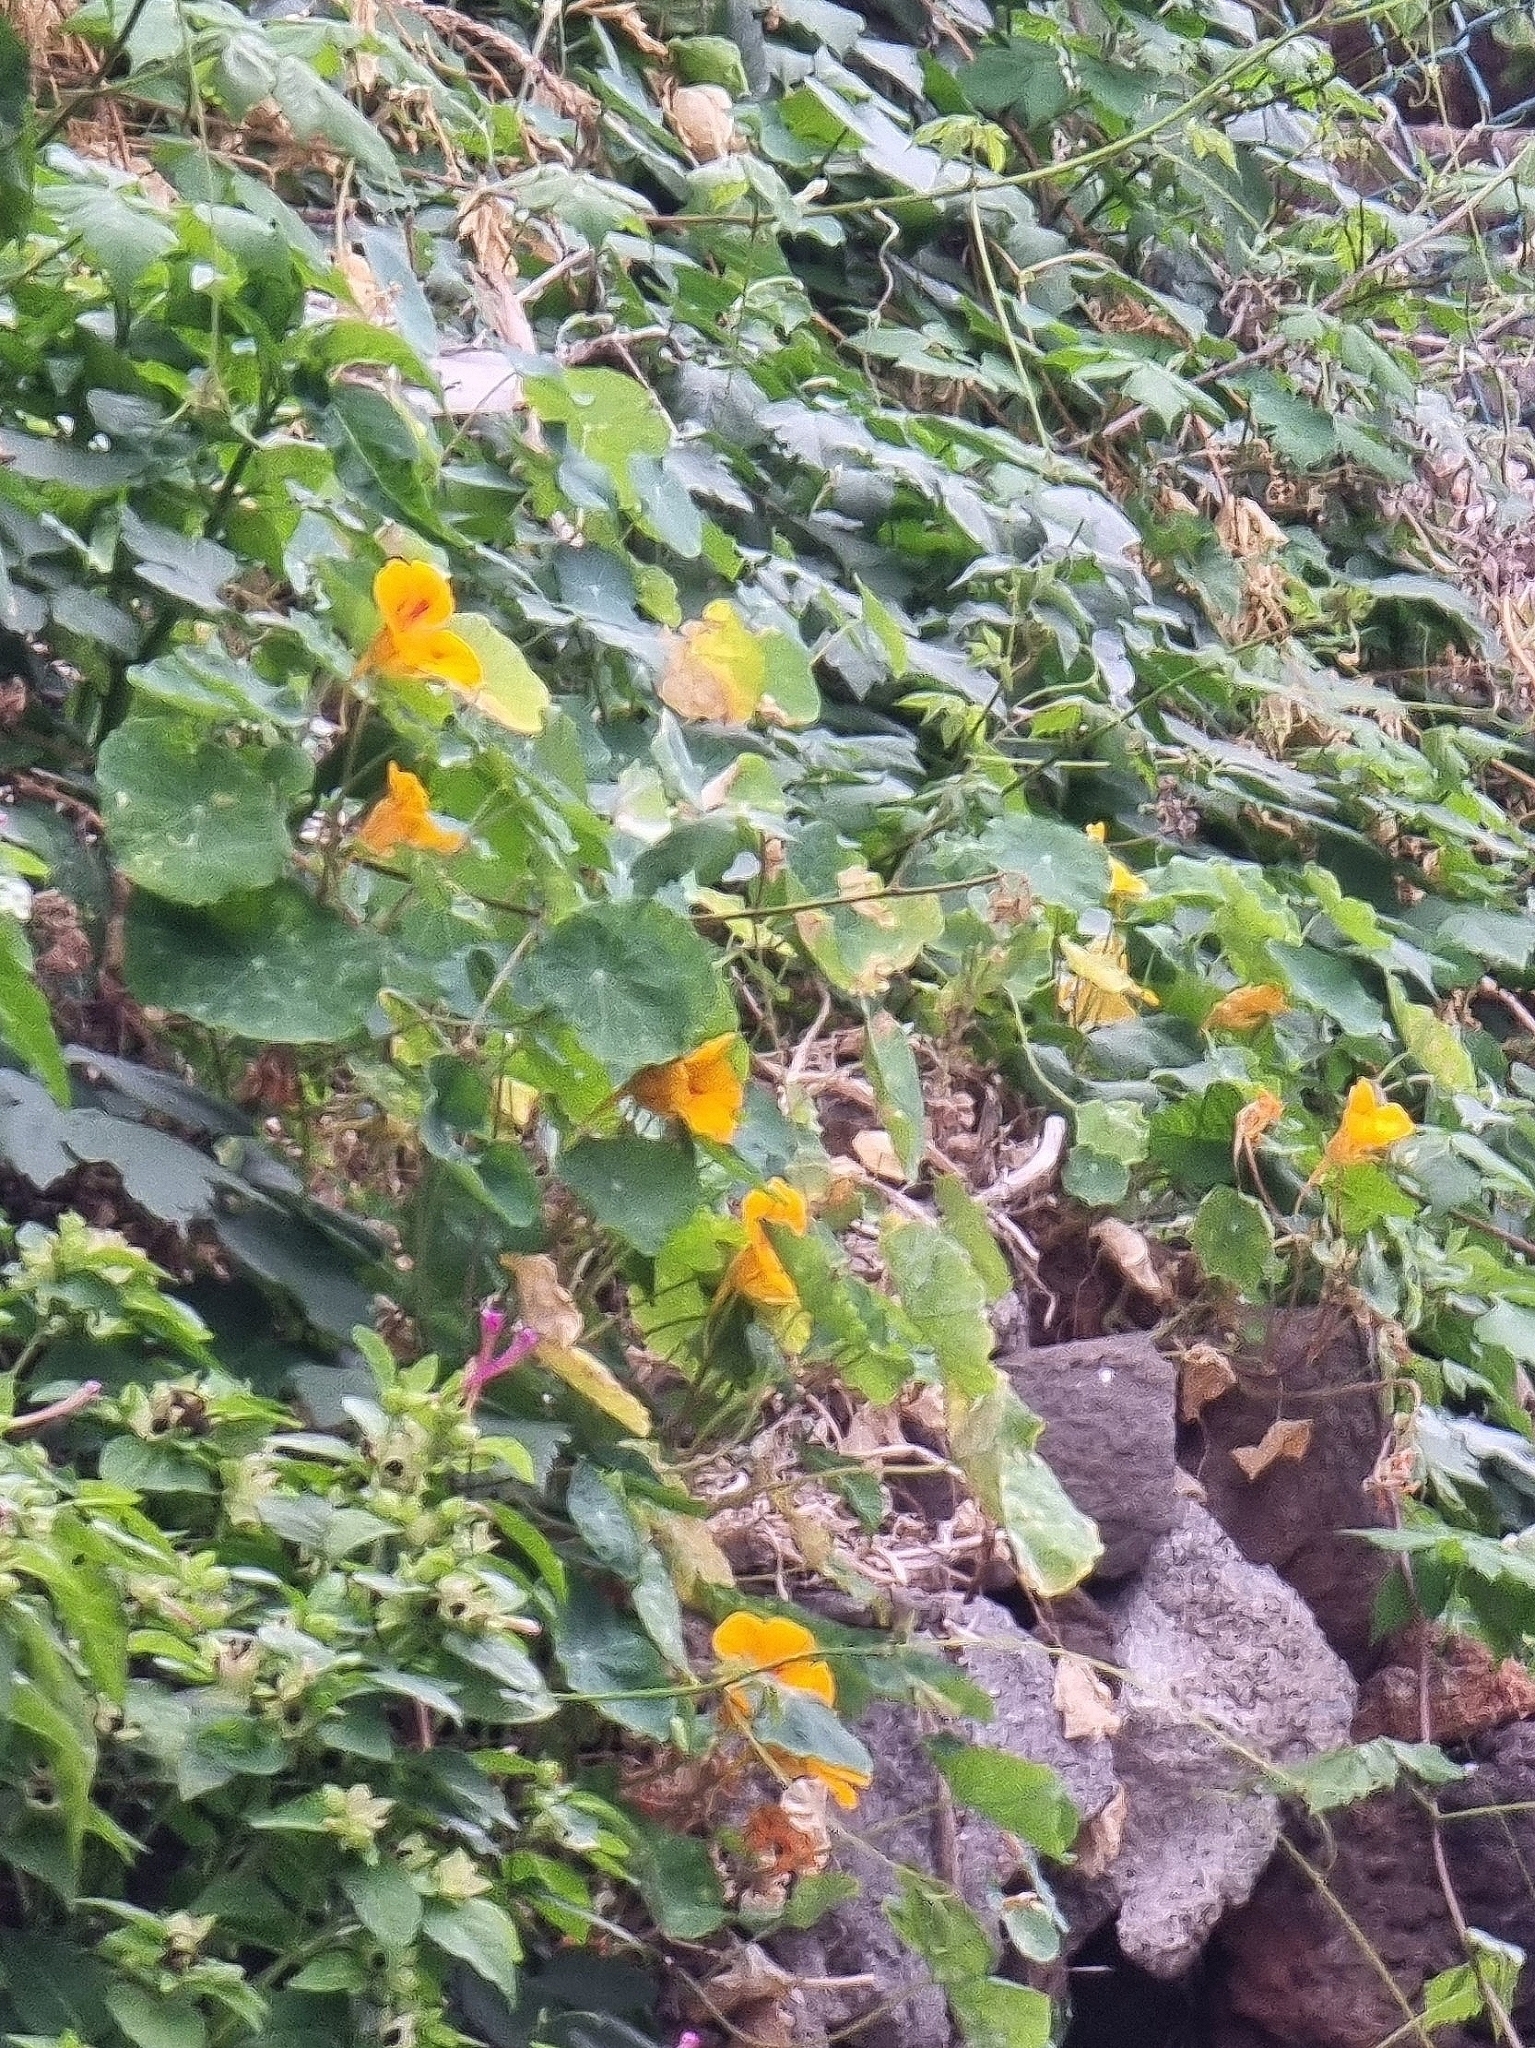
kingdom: Plantae
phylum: Tracheophyta
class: Magnoliopsida
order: Brassicales
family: Tropaeolaceae
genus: Tropaeolum
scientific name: Tropaeolum majus
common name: Nasturtium
